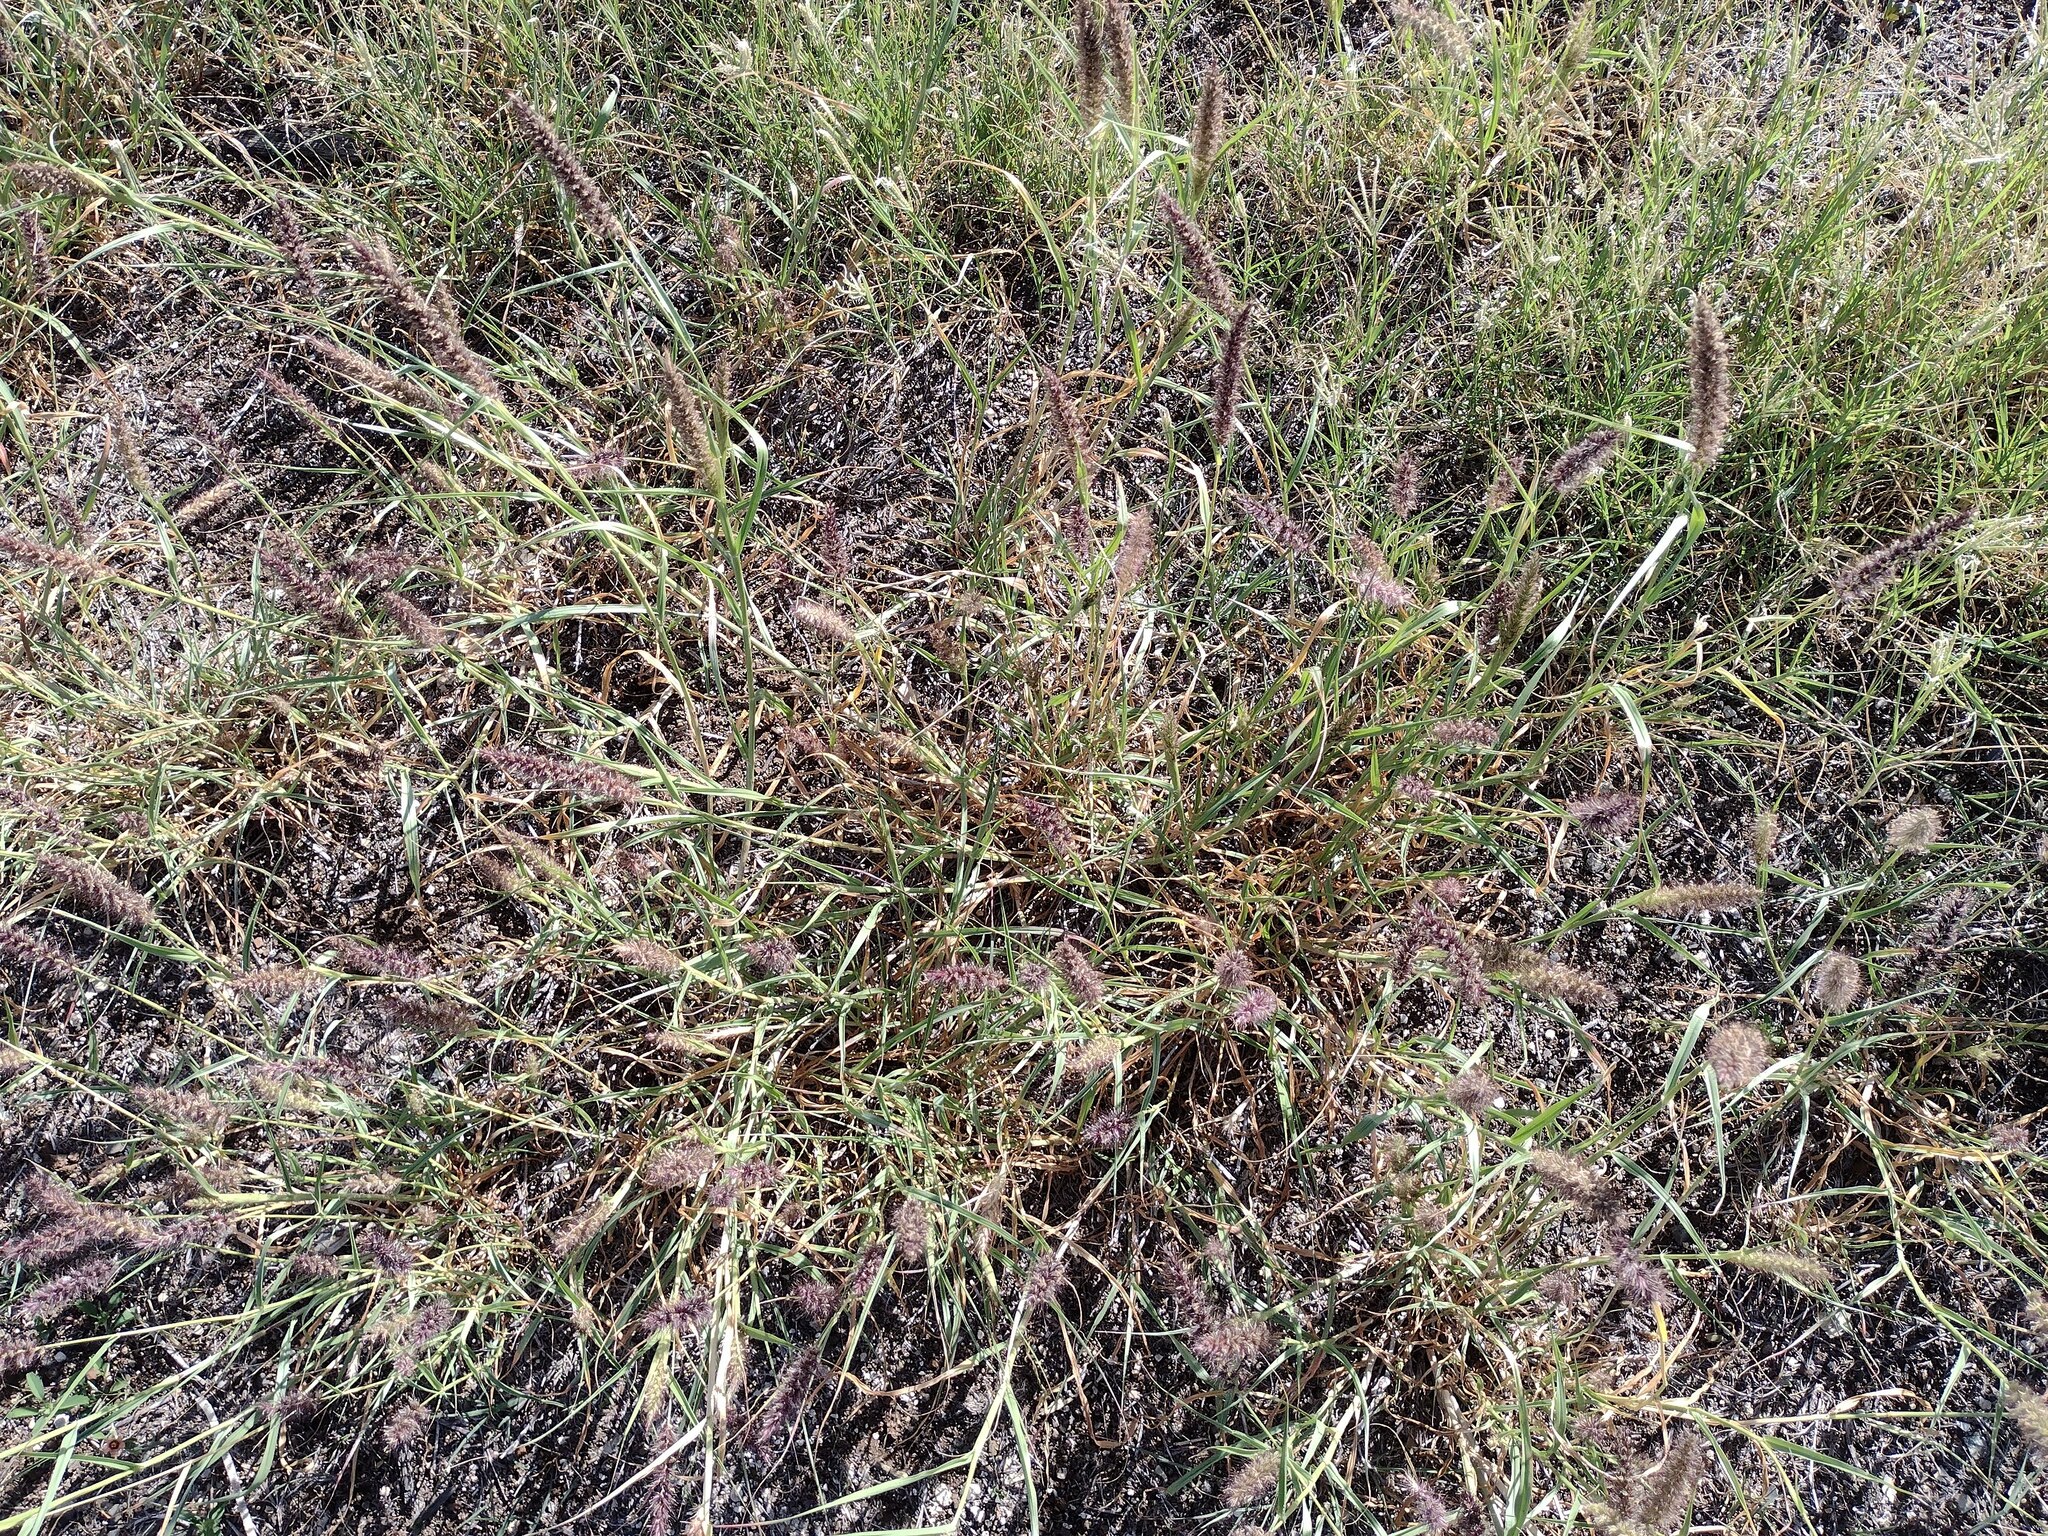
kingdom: Plantae
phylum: Tracheophyta
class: Liliopsida
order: Poales
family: Poaceae
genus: Cenchrus
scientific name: Cenchrus ciliaris
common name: Buffelgrass
